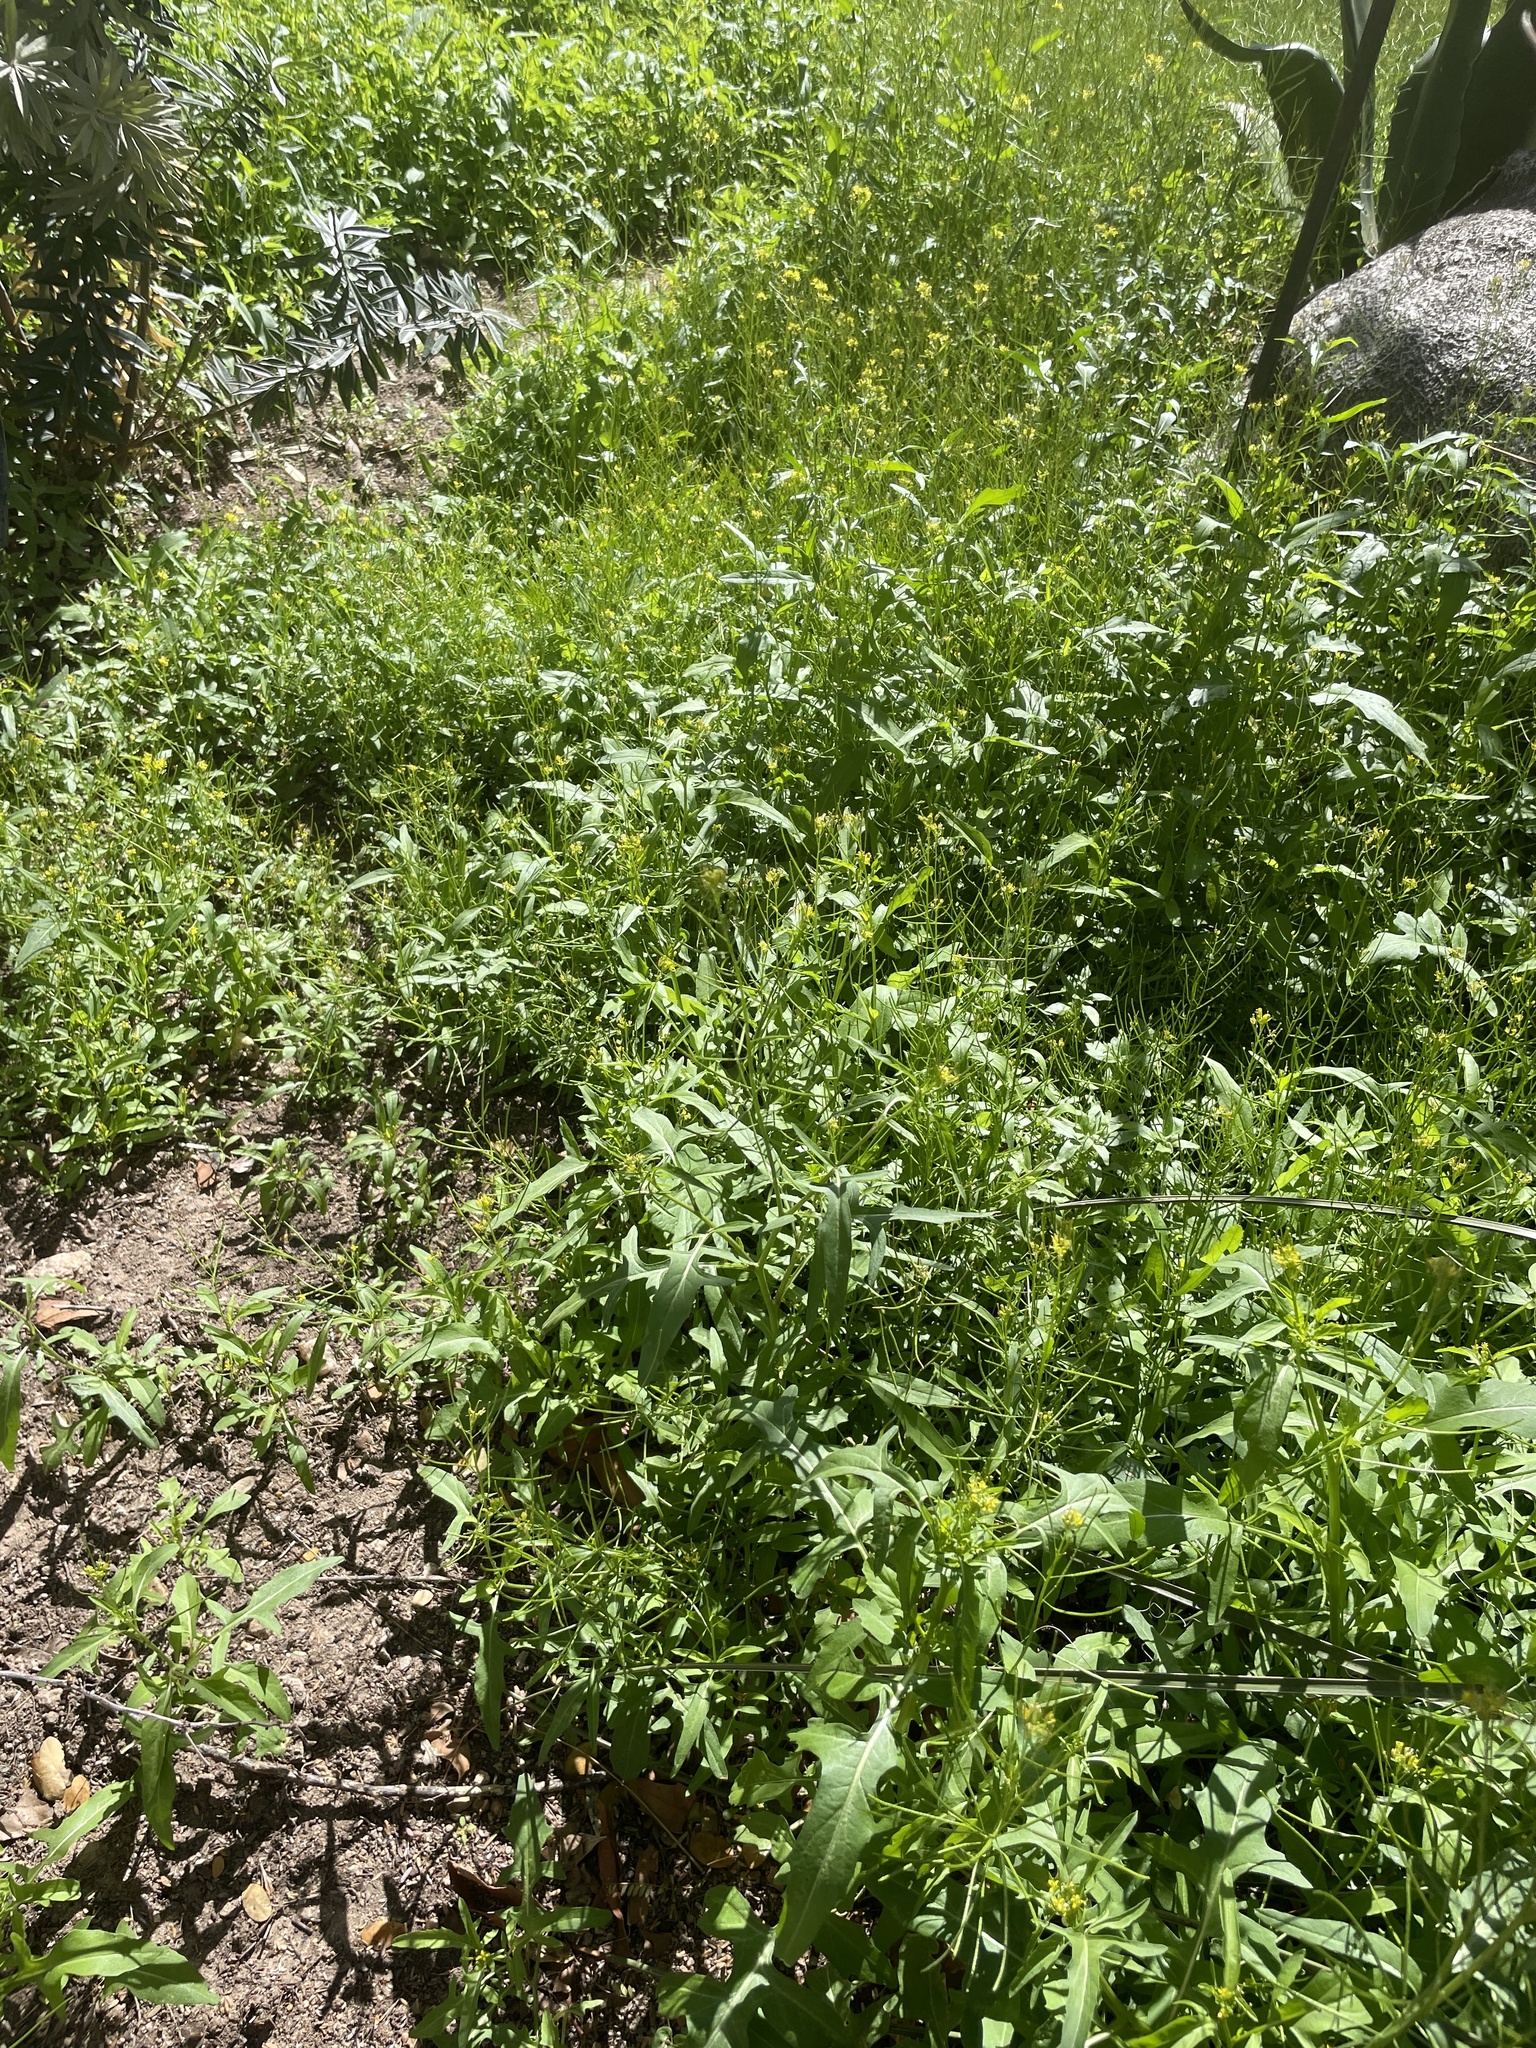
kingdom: Plantae
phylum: Tracheophyta
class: Magnoliopsida
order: Brassicales
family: Brassicaceae
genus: Sisymbrium
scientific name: Sisymbrium irio
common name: London rocket
